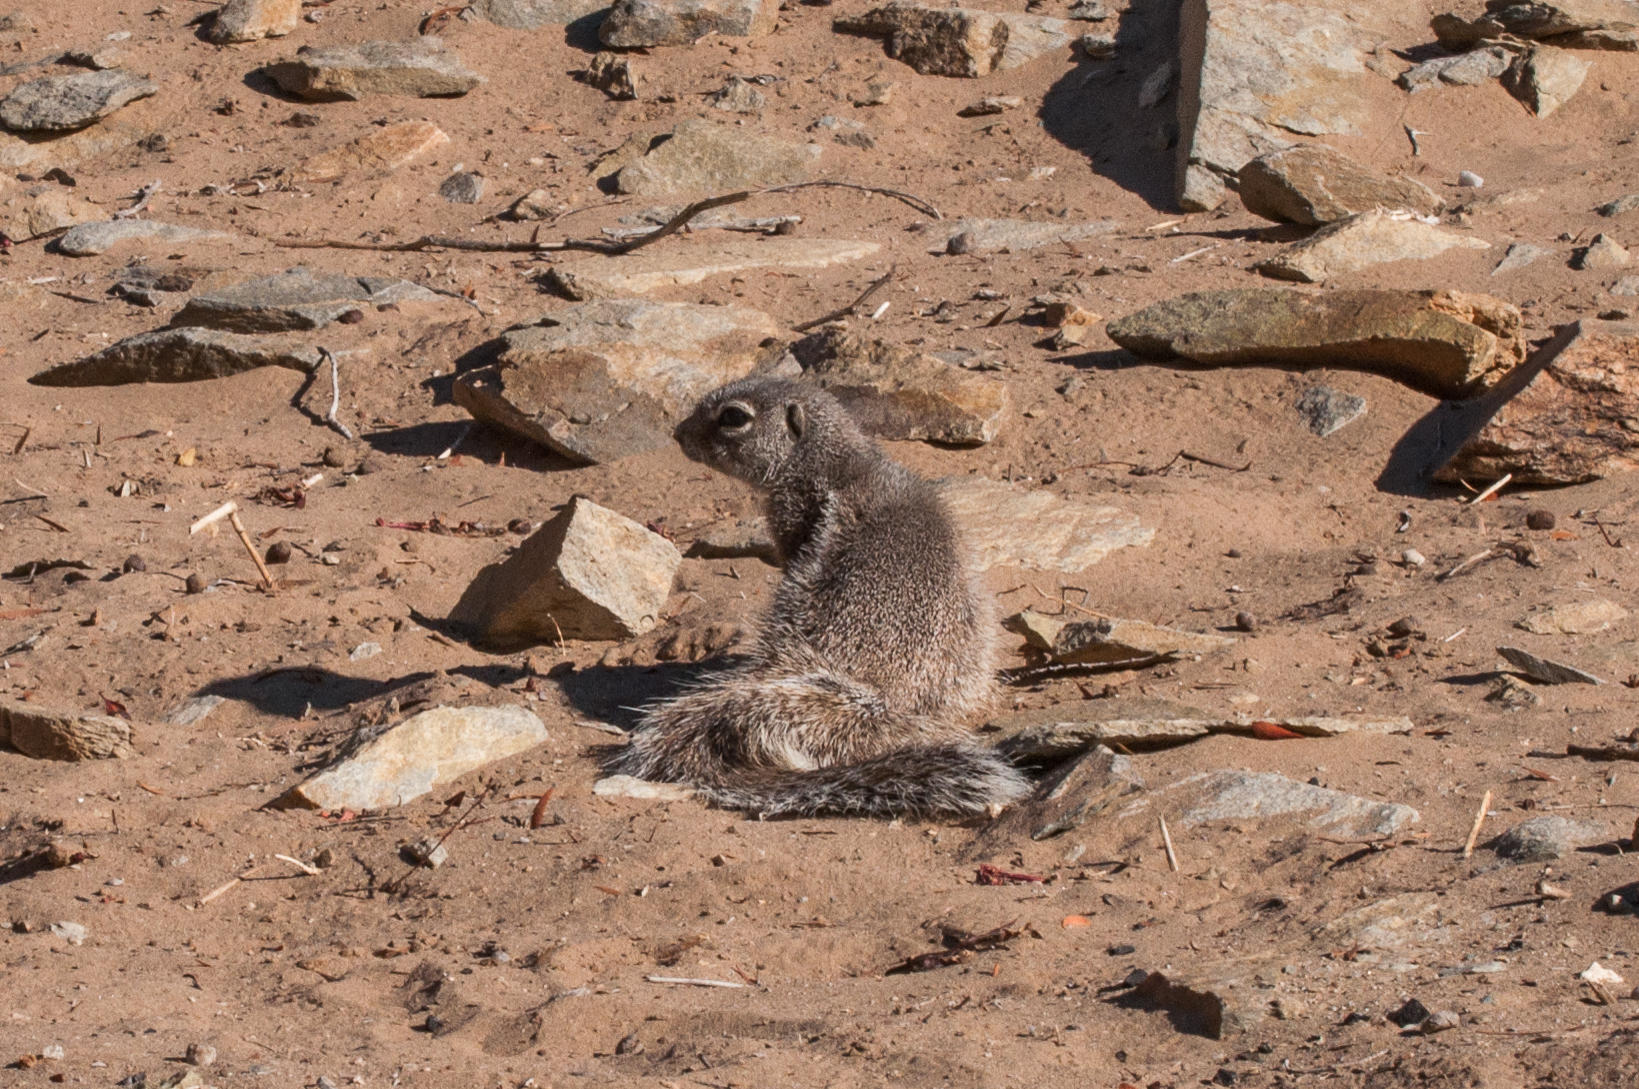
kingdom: Animalia
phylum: Chordata
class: Mammalia
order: Rodentia
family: Sciuridae
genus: Xerus
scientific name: Xerus inauris
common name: South african ground squirrel
